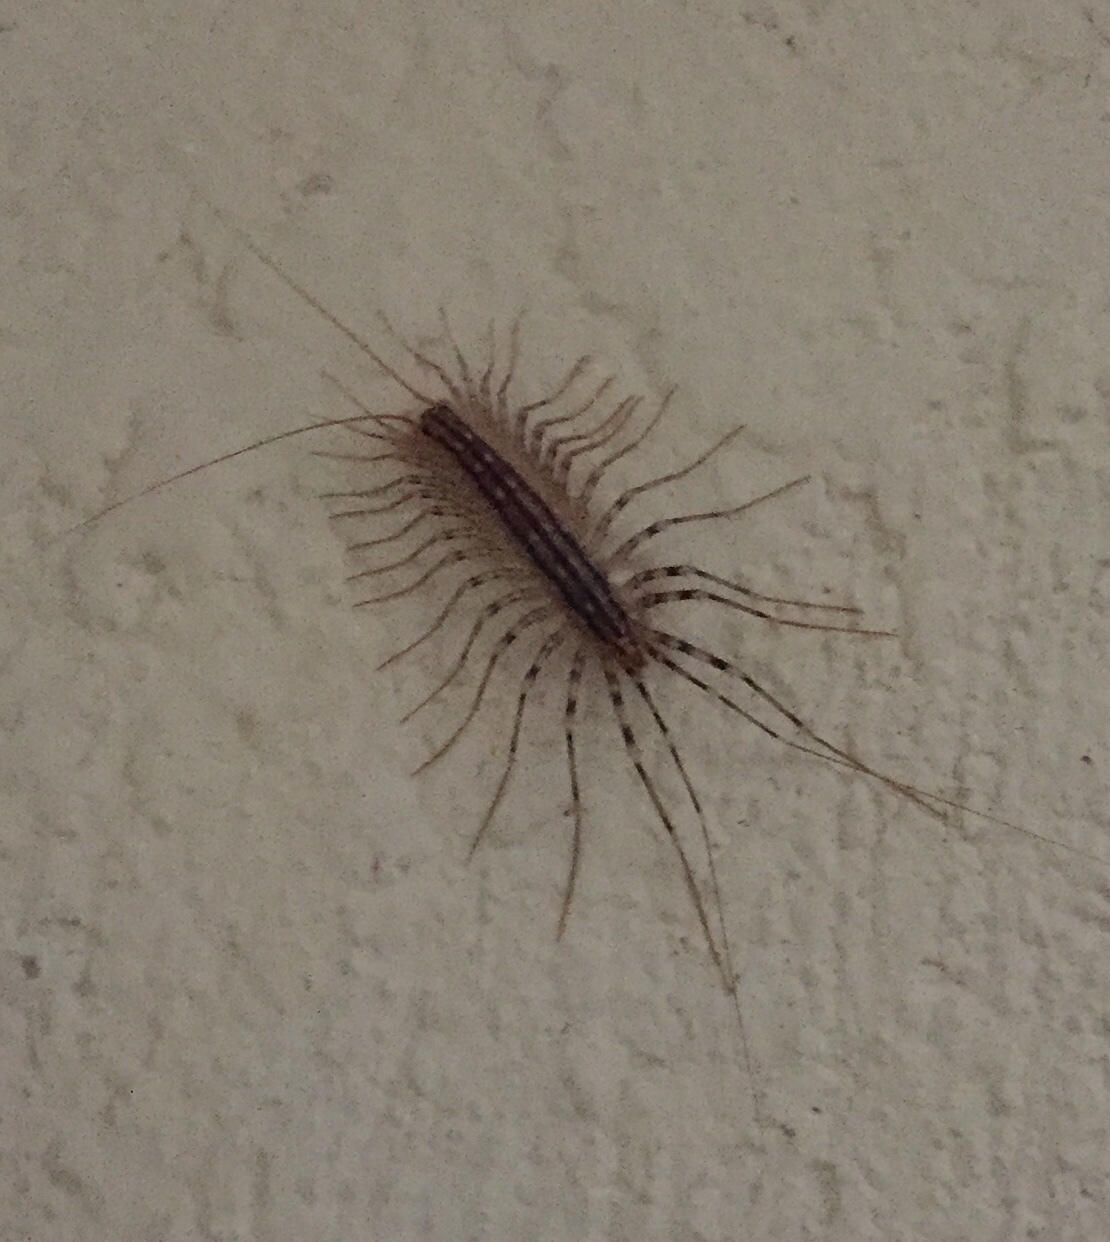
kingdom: Animalia
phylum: Arthropoda
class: Chilopoda
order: Scutigeromorpha
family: Scutigeridae
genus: Scutigera
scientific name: Scutigera coleoptrata
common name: House centipede
